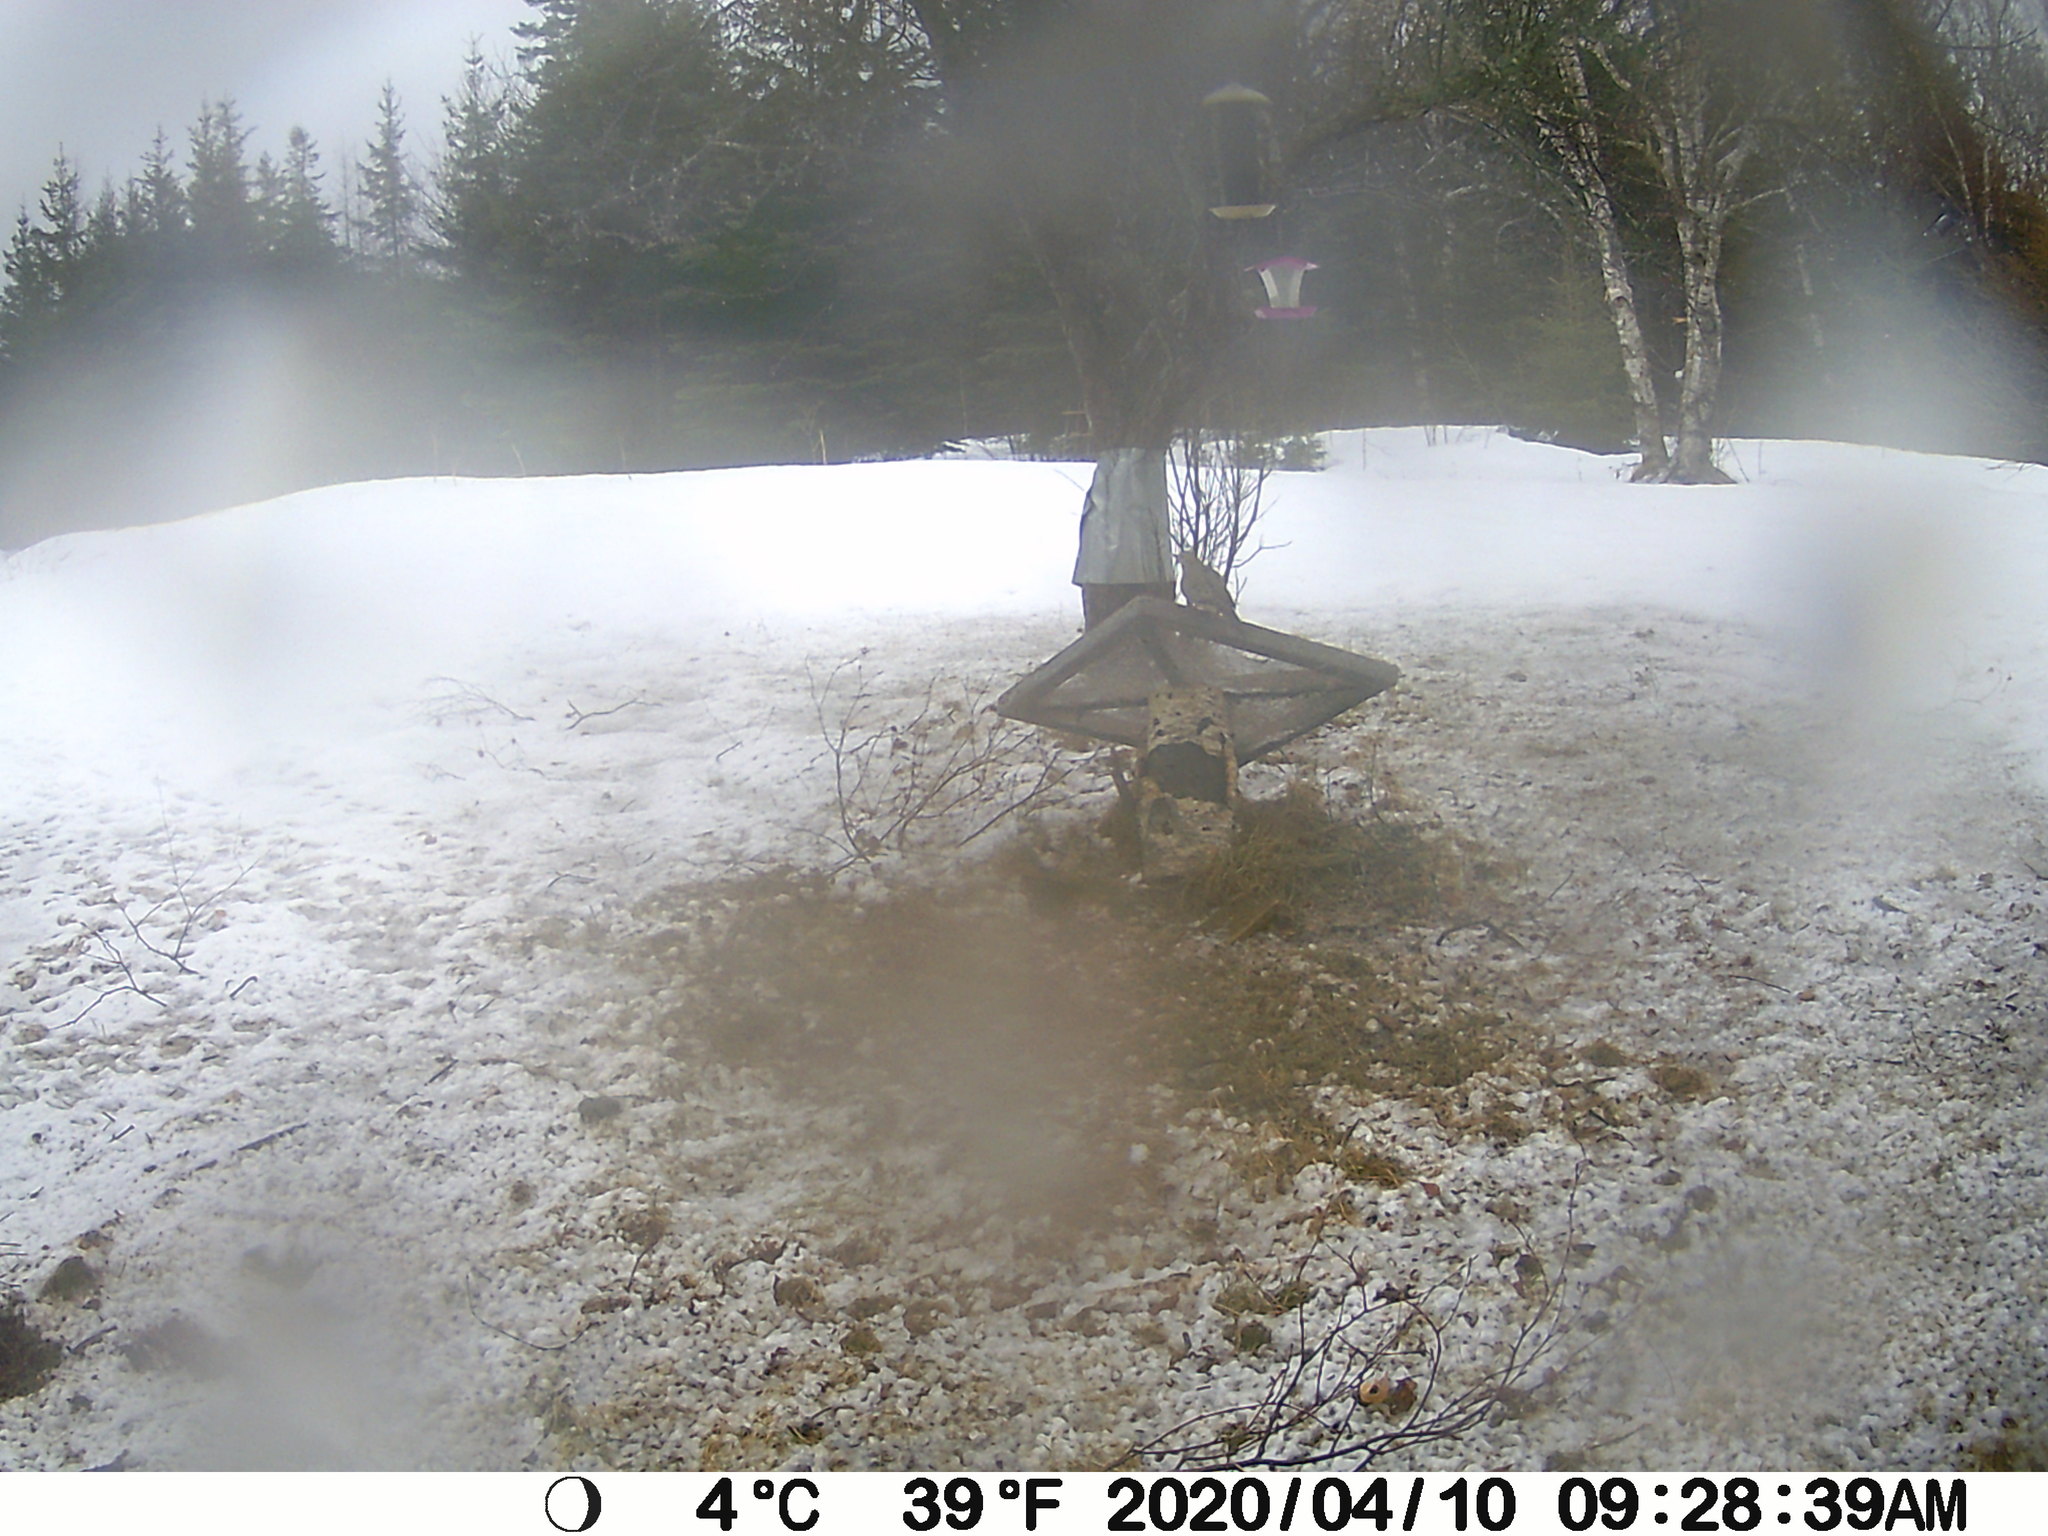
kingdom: Animalia
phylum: Chordata
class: Aves
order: Columbiformes
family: Columbidae
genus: Zenaida
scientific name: Zenaida macroura
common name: Mourning dove
